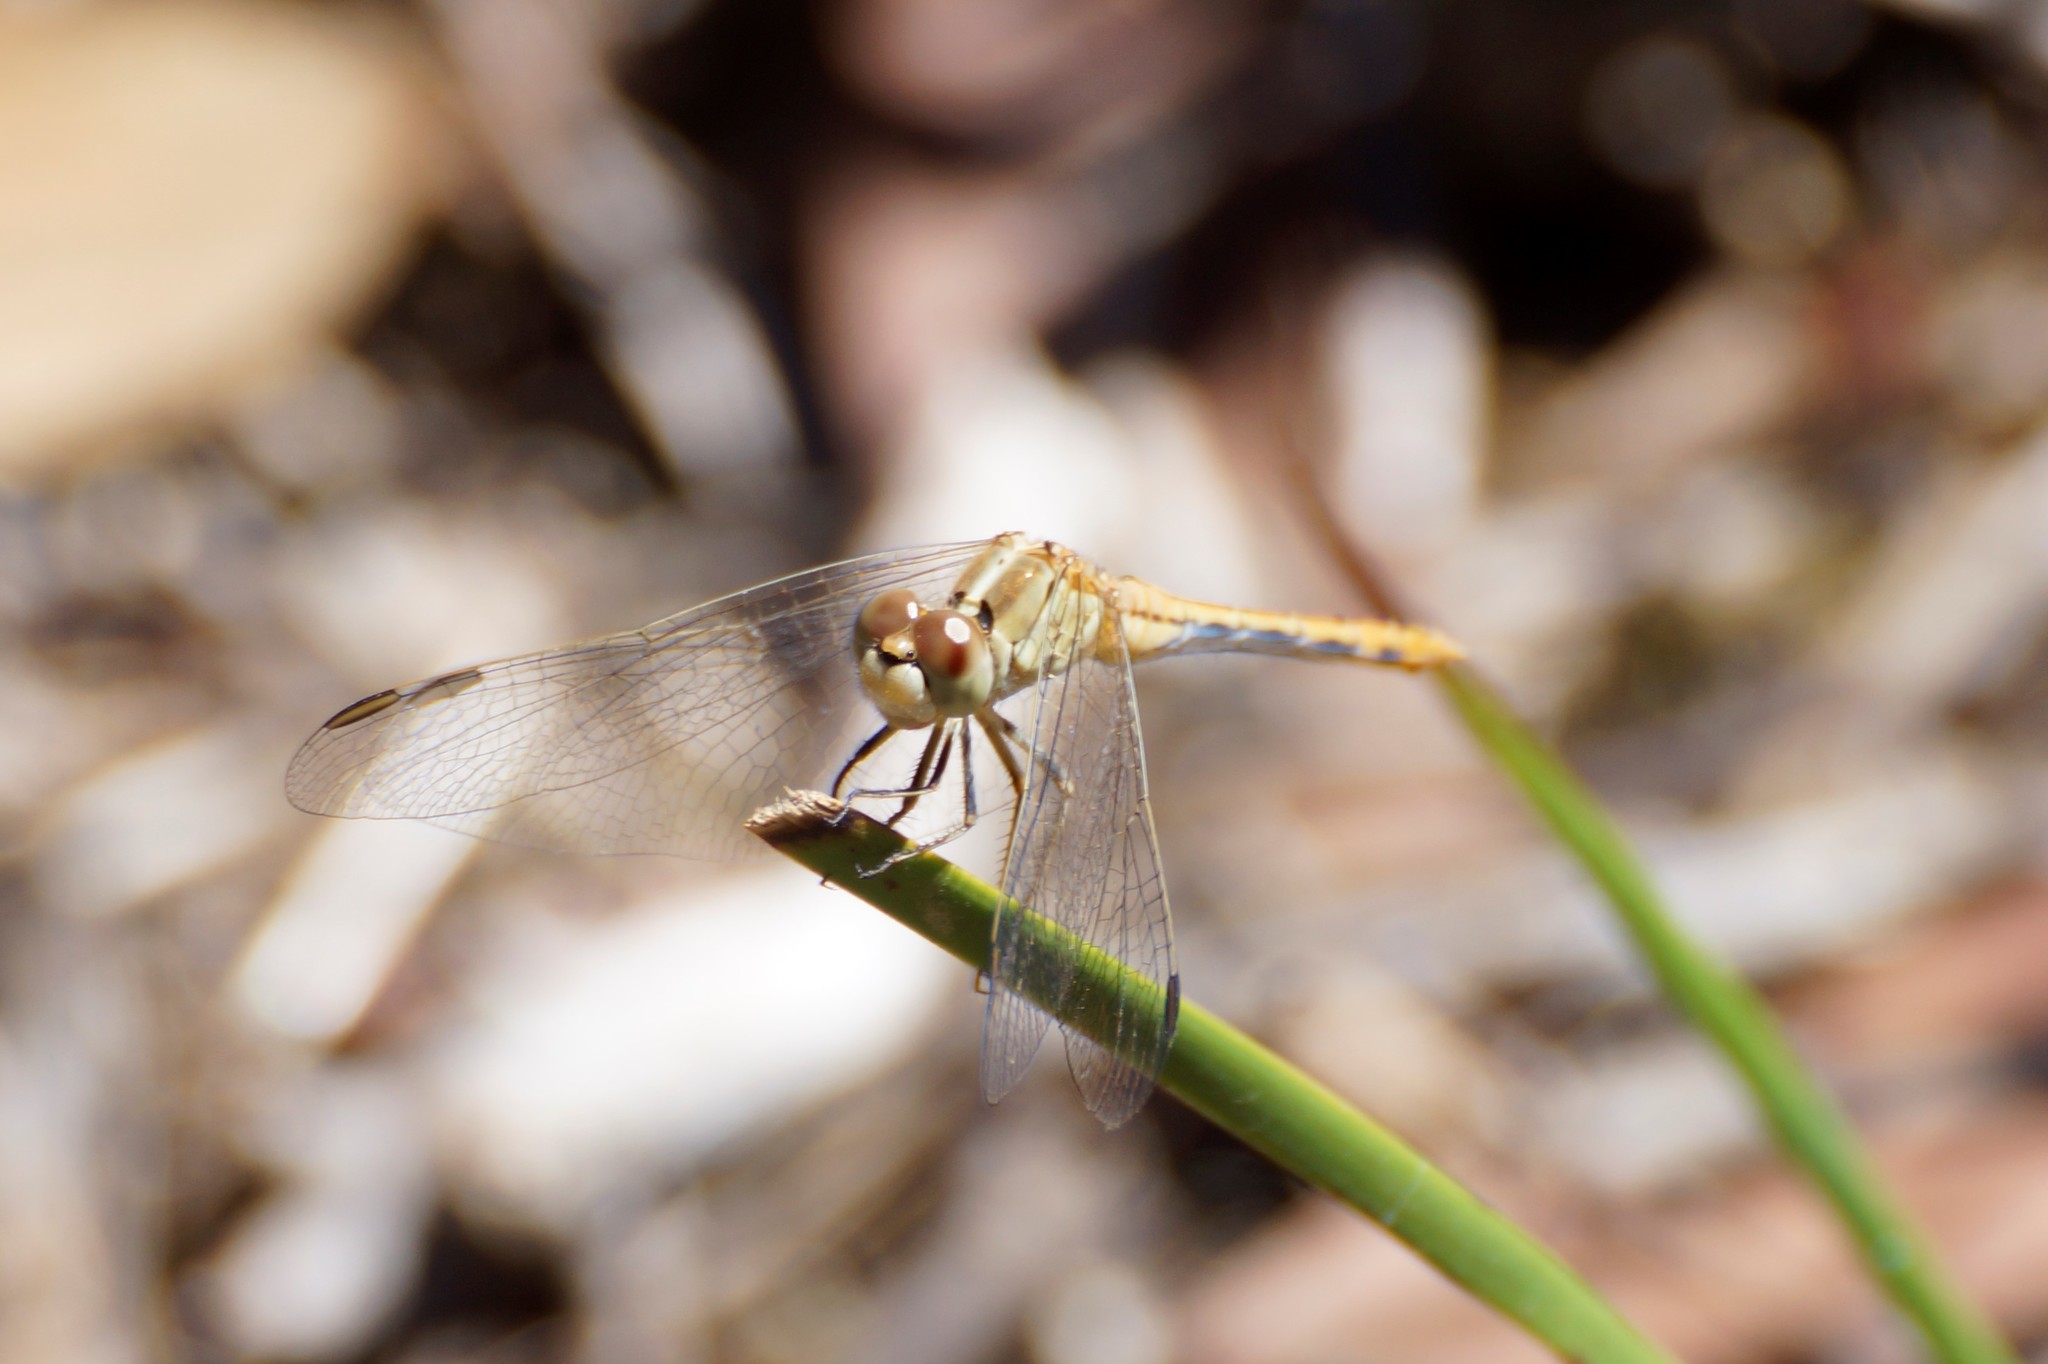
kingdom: Animalia
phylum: Arthropoda
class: Insecta
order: Odonata
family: Libellulidae
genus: Diplacodes
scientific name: Diplacodes bipunctata
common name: Red percher dragonfly
